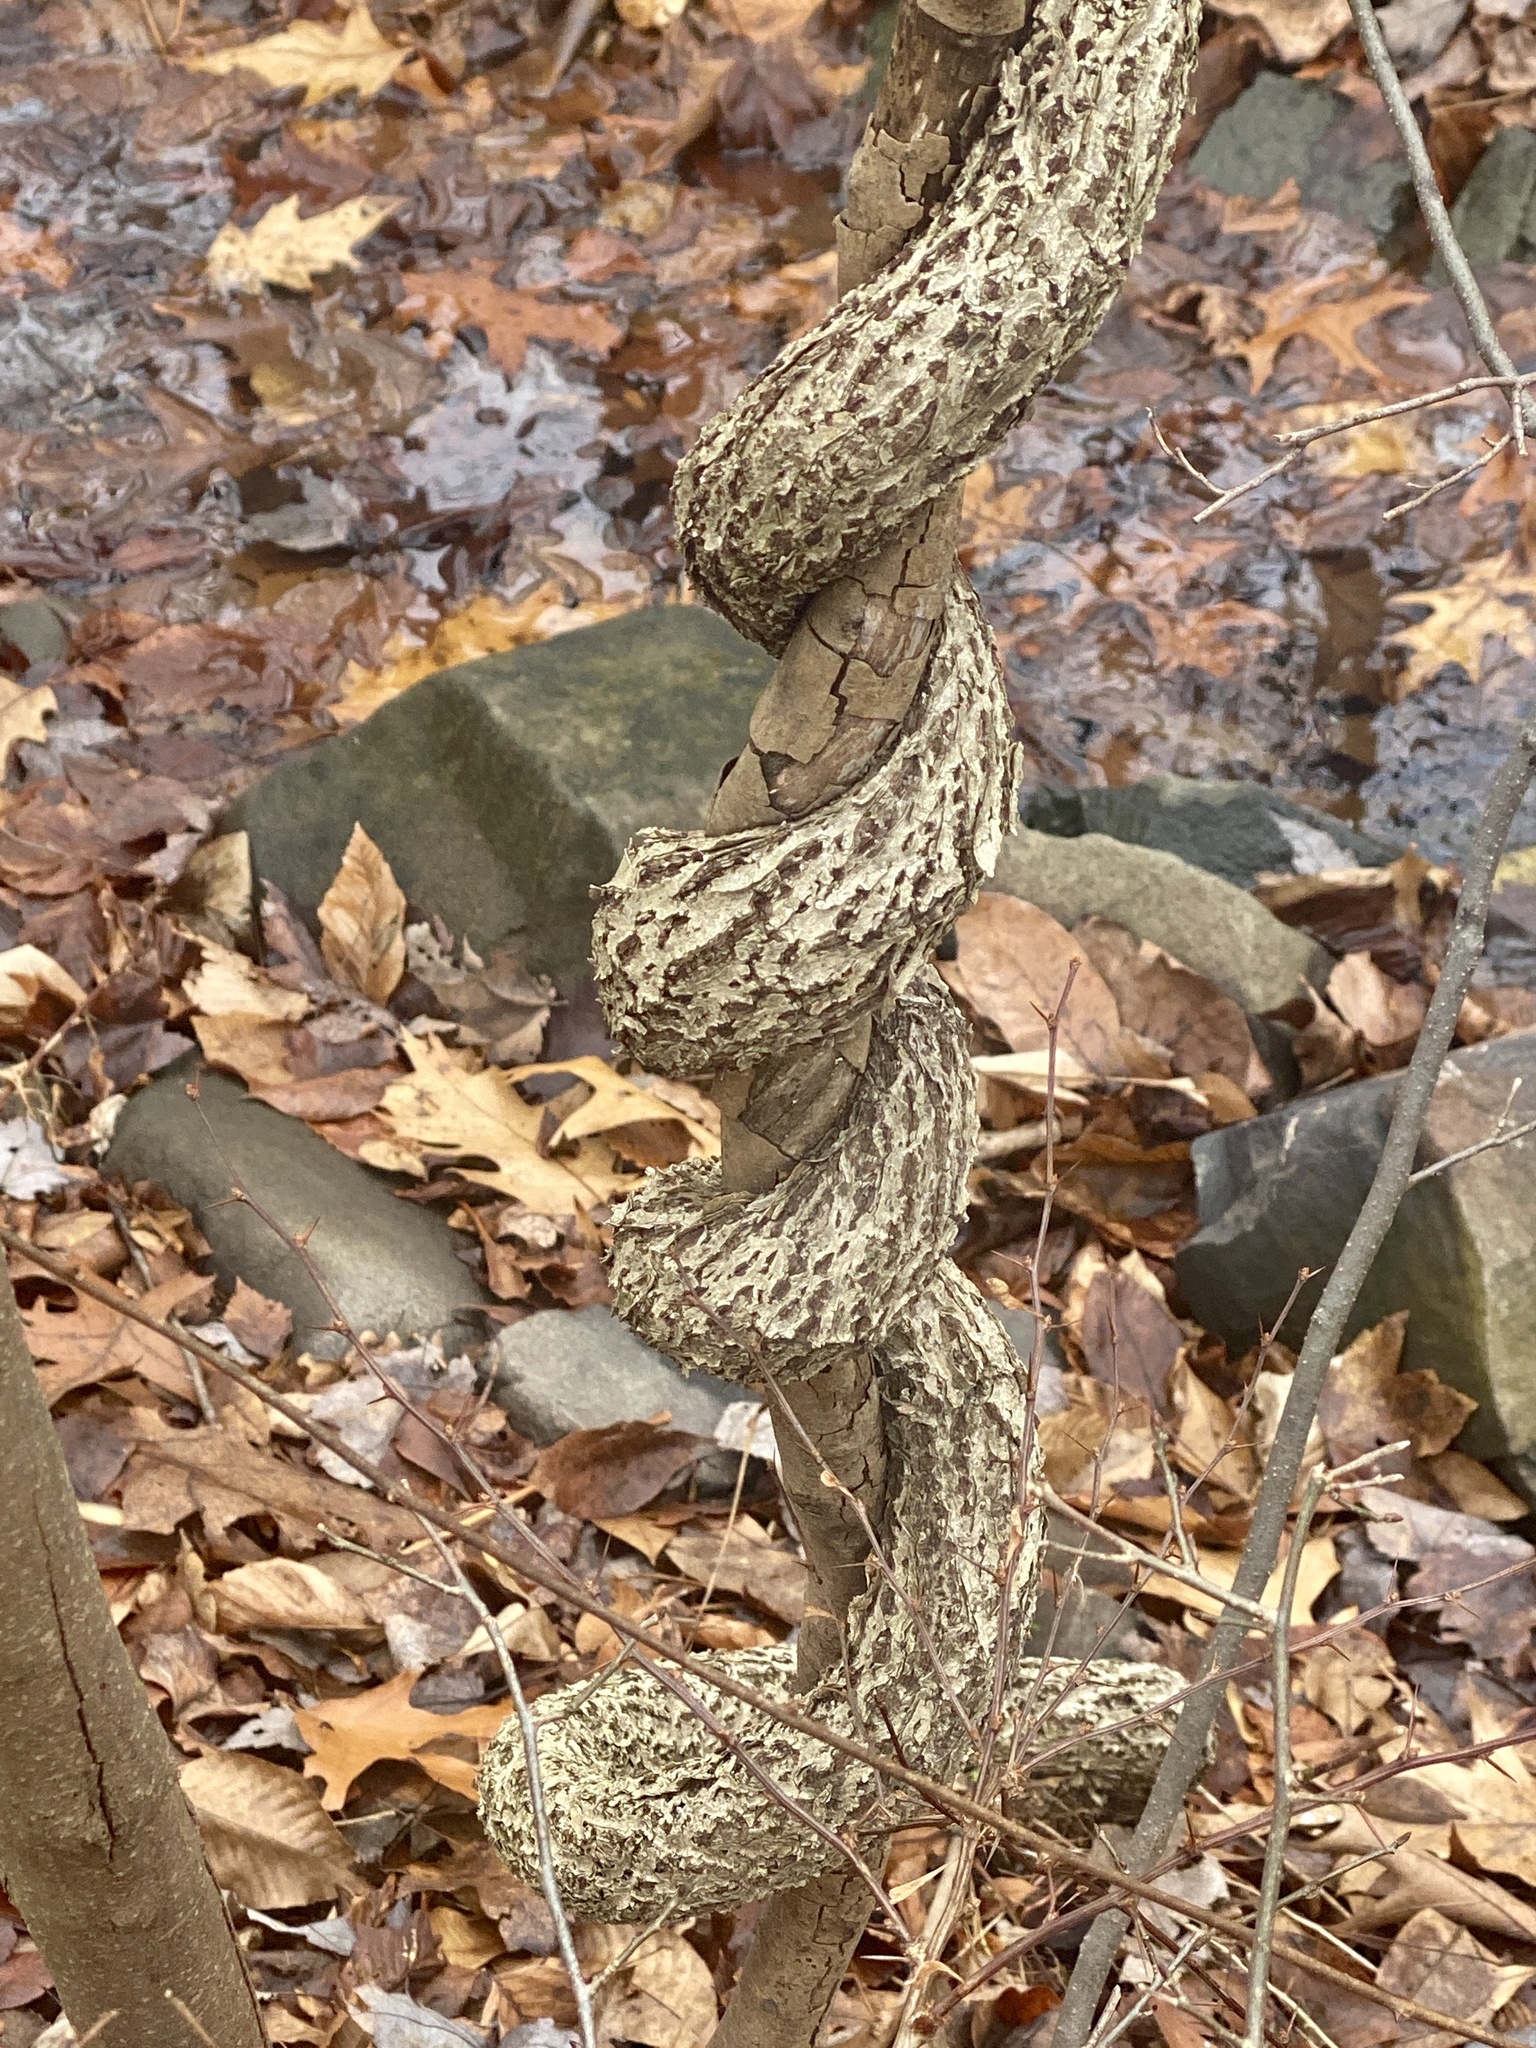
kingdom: Plantae
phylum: Tracheophyta
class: Magnoliopsida
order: Celastrales
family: Celastraceae
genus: Celastrus
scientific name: Celastrus orbiculatus
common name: Oriental bittersweet
